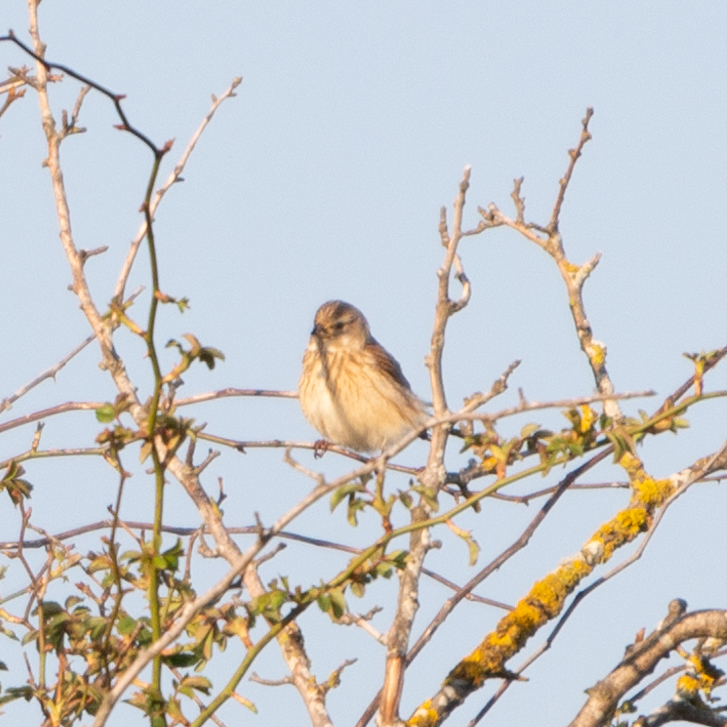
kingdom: Animalia
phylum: Chordata
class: Aves
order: Passeriformes
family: Fringillidae
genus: Linaria
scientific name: Linaria cannabina
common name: Common linnet
